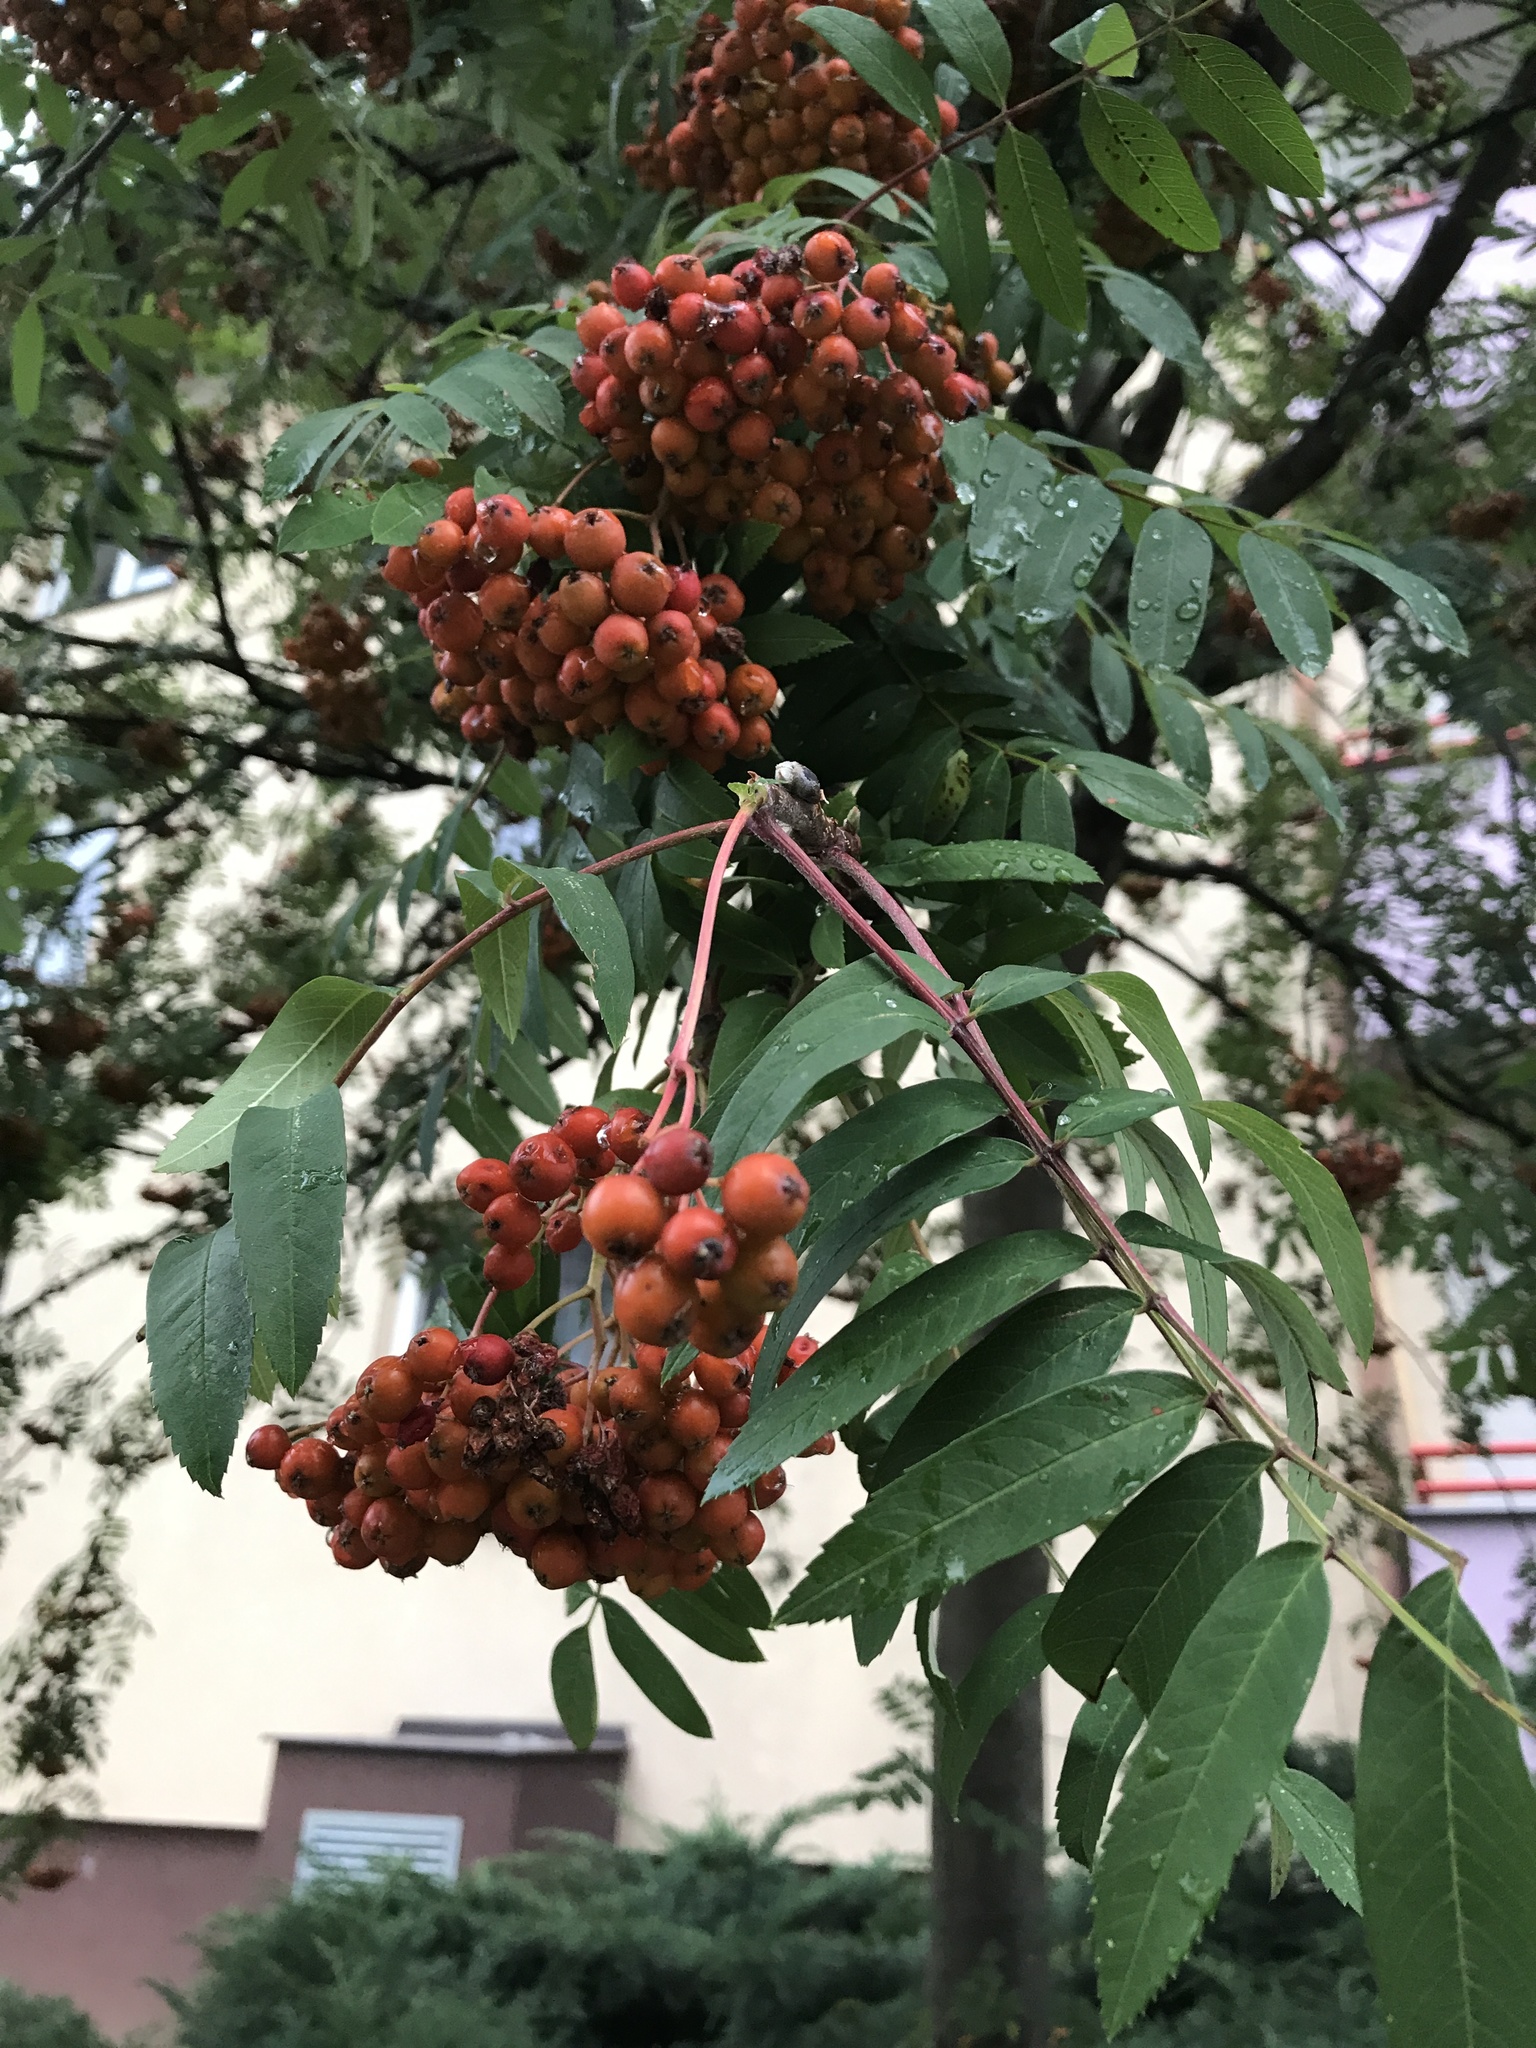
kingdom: Plantae
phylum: Tracheophyta
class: Magnoliopsida
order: Rosales
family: Rosaceae
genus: Sorbus
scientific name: Sorbus aucuparia
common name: Rowan
